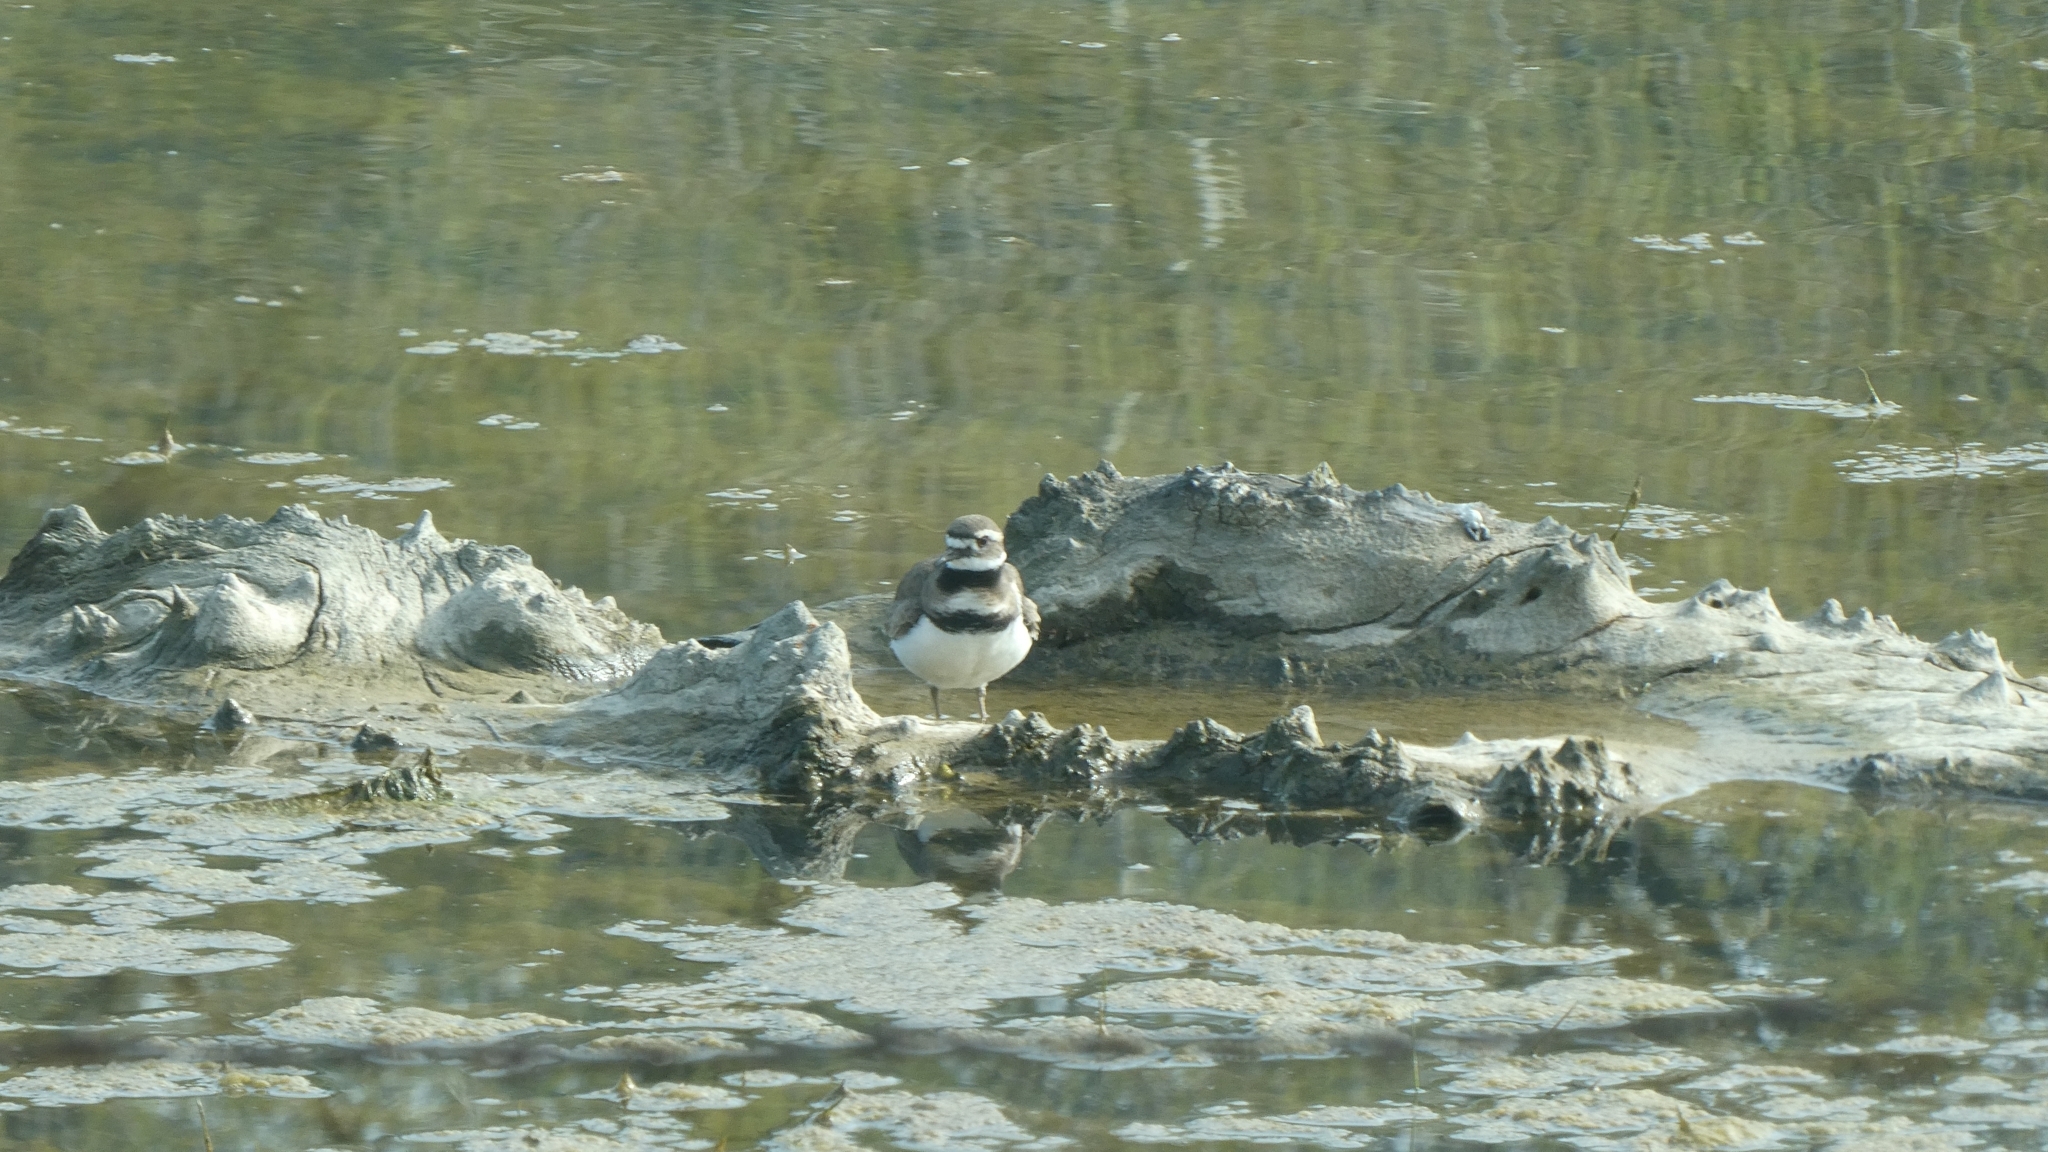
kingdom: Animalia
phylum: Chordata
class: Aves
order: Charadriiformes
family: Charadriidae
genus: Charadrius
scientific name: Charadrius vociferus
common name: Killdeer
